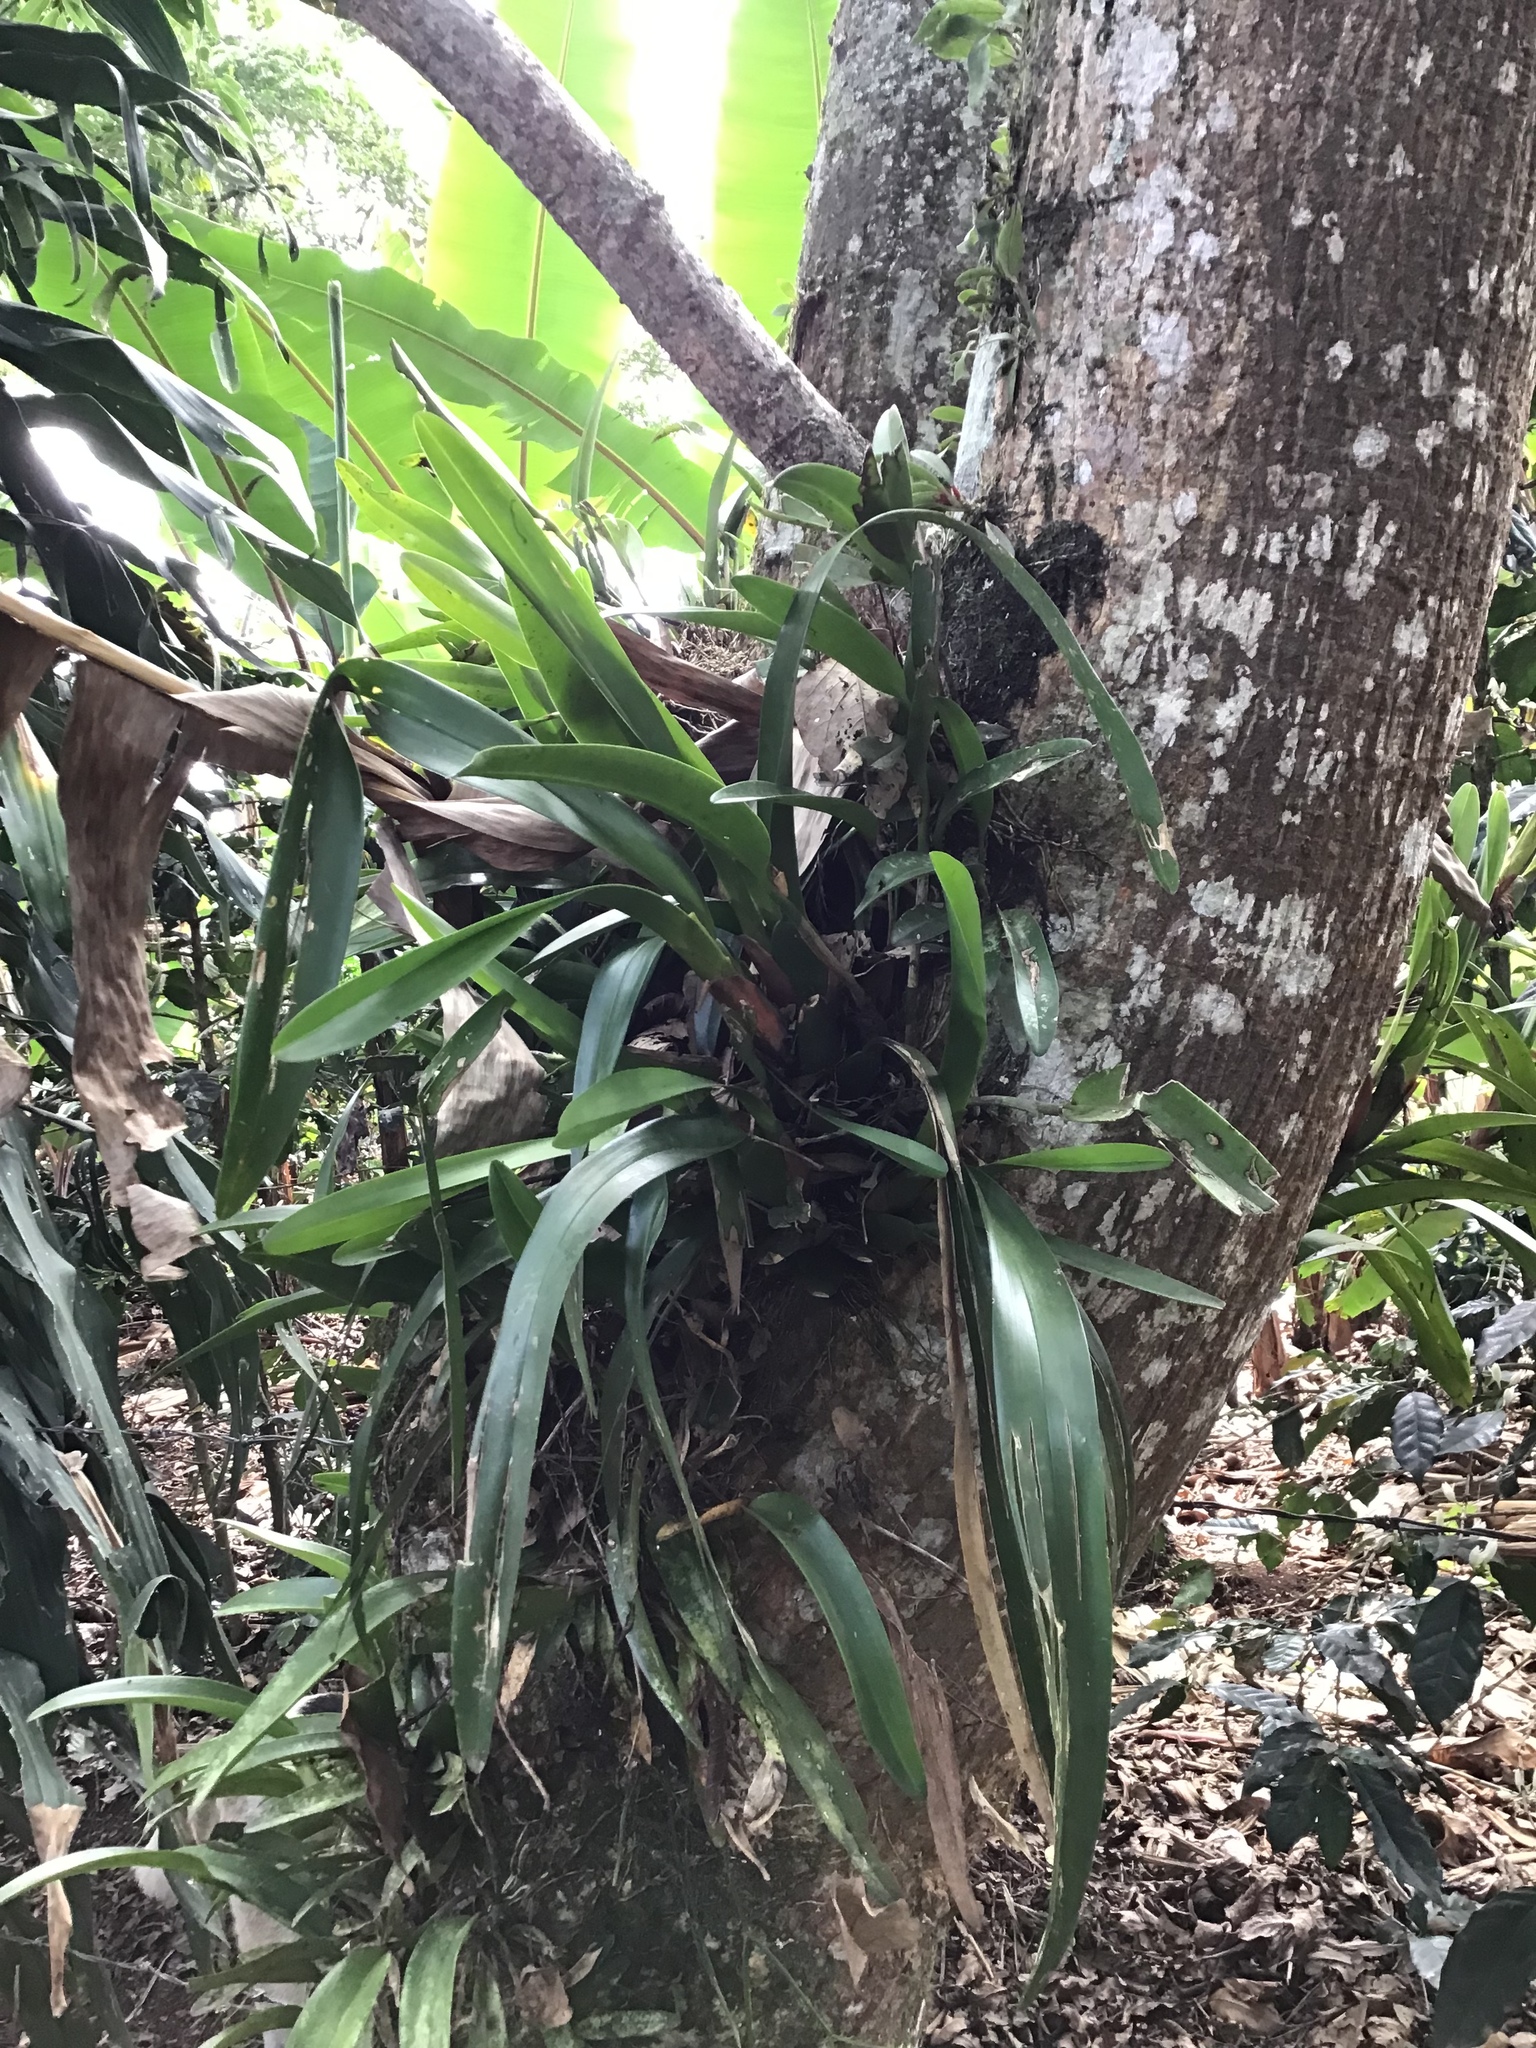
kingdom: Plantae
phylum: Tracheophyta
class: Liliopsida
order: Asparagales
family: Orchidaceae
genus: Maxillaria
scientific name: Maxillaria densa
